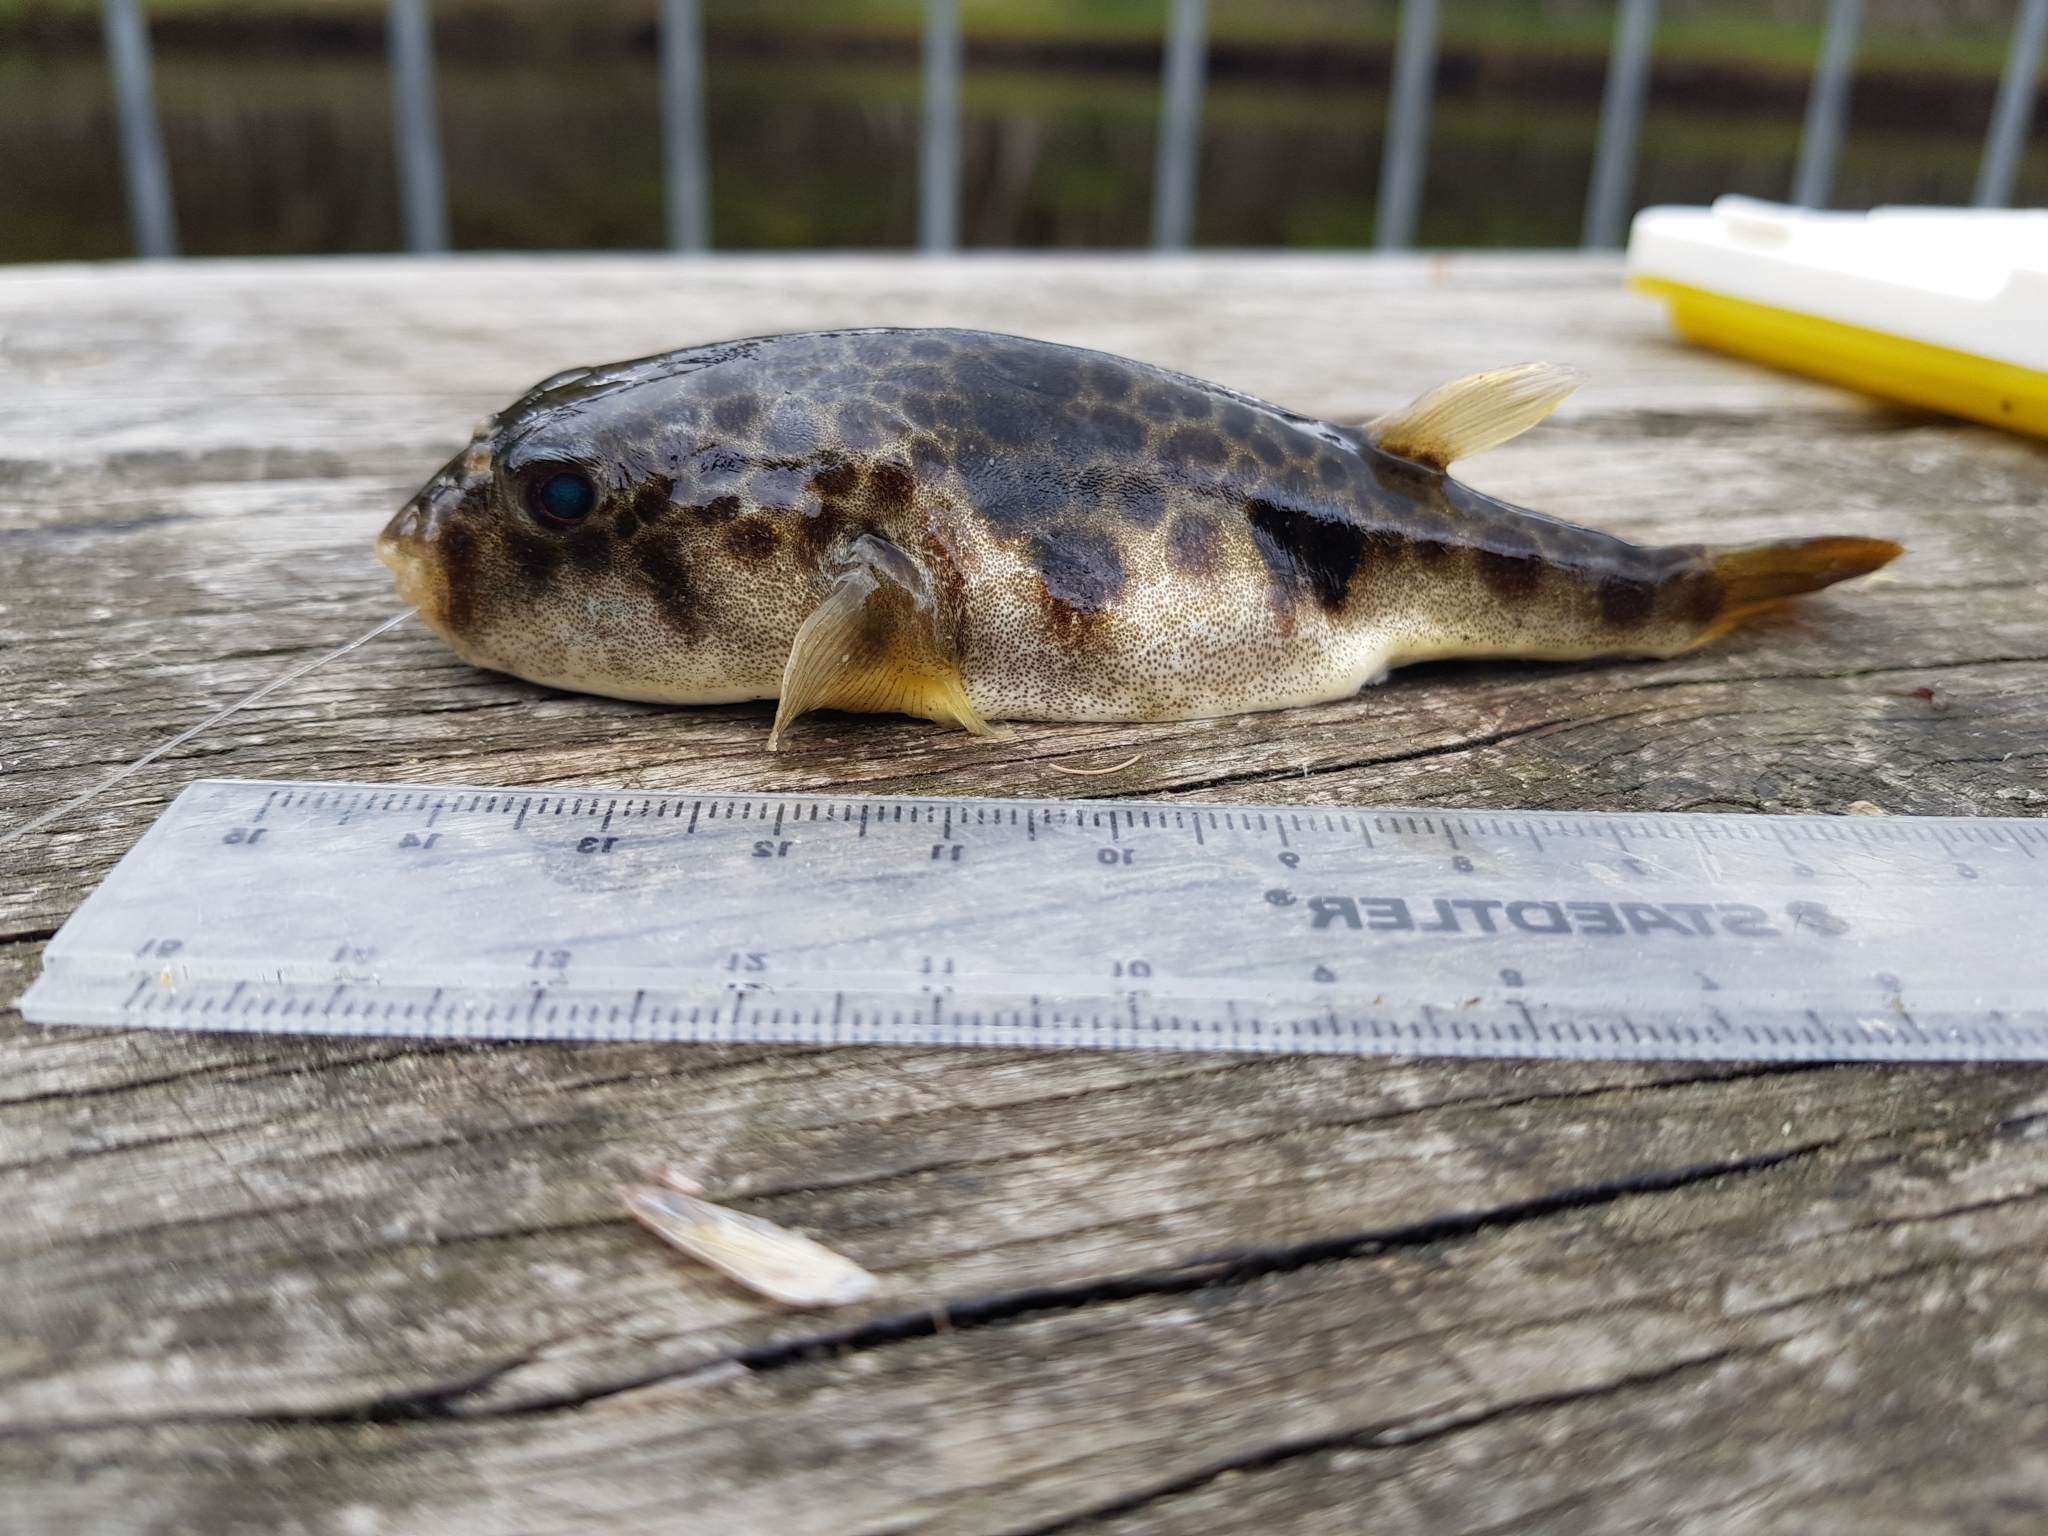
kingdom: Animalia
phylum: Chordata
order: Tetraodontiformes
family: Tetraodontidae
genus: Tetractenos
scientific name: Tetractenos glaber
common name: Smooth toadfish
